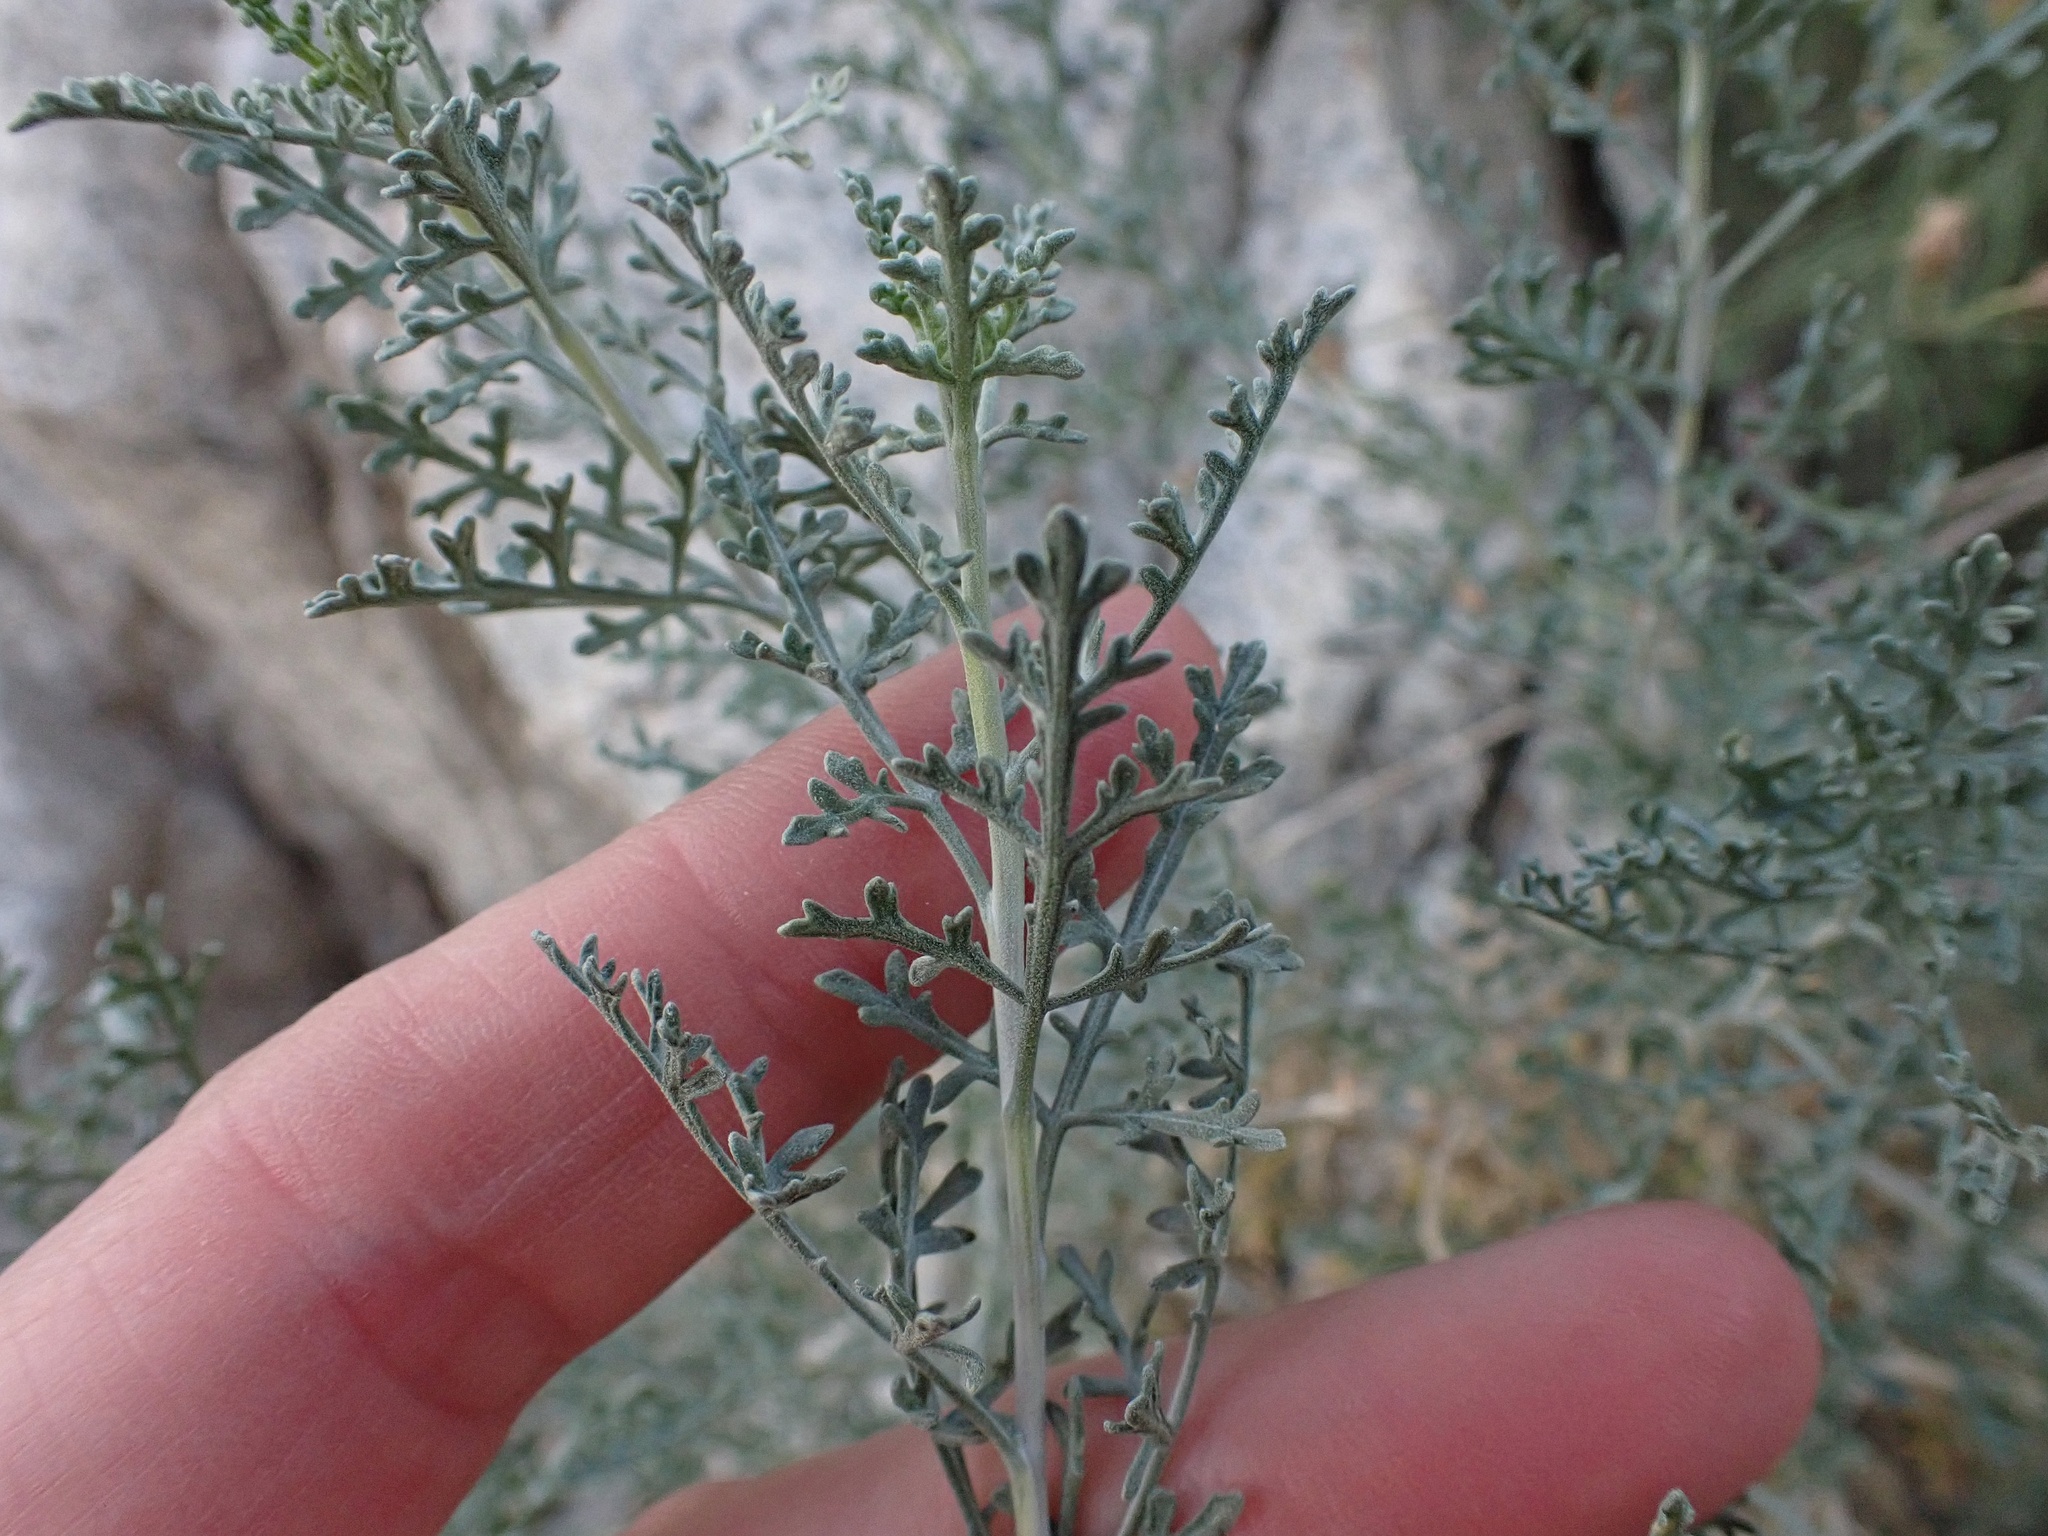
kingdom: Plantae
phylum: Tracheophyta
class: Magnoliopsida
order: Asterales
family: Asteraceae
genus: Ambrosia
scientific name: Ambrosia dumosa
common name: Bur-sage
